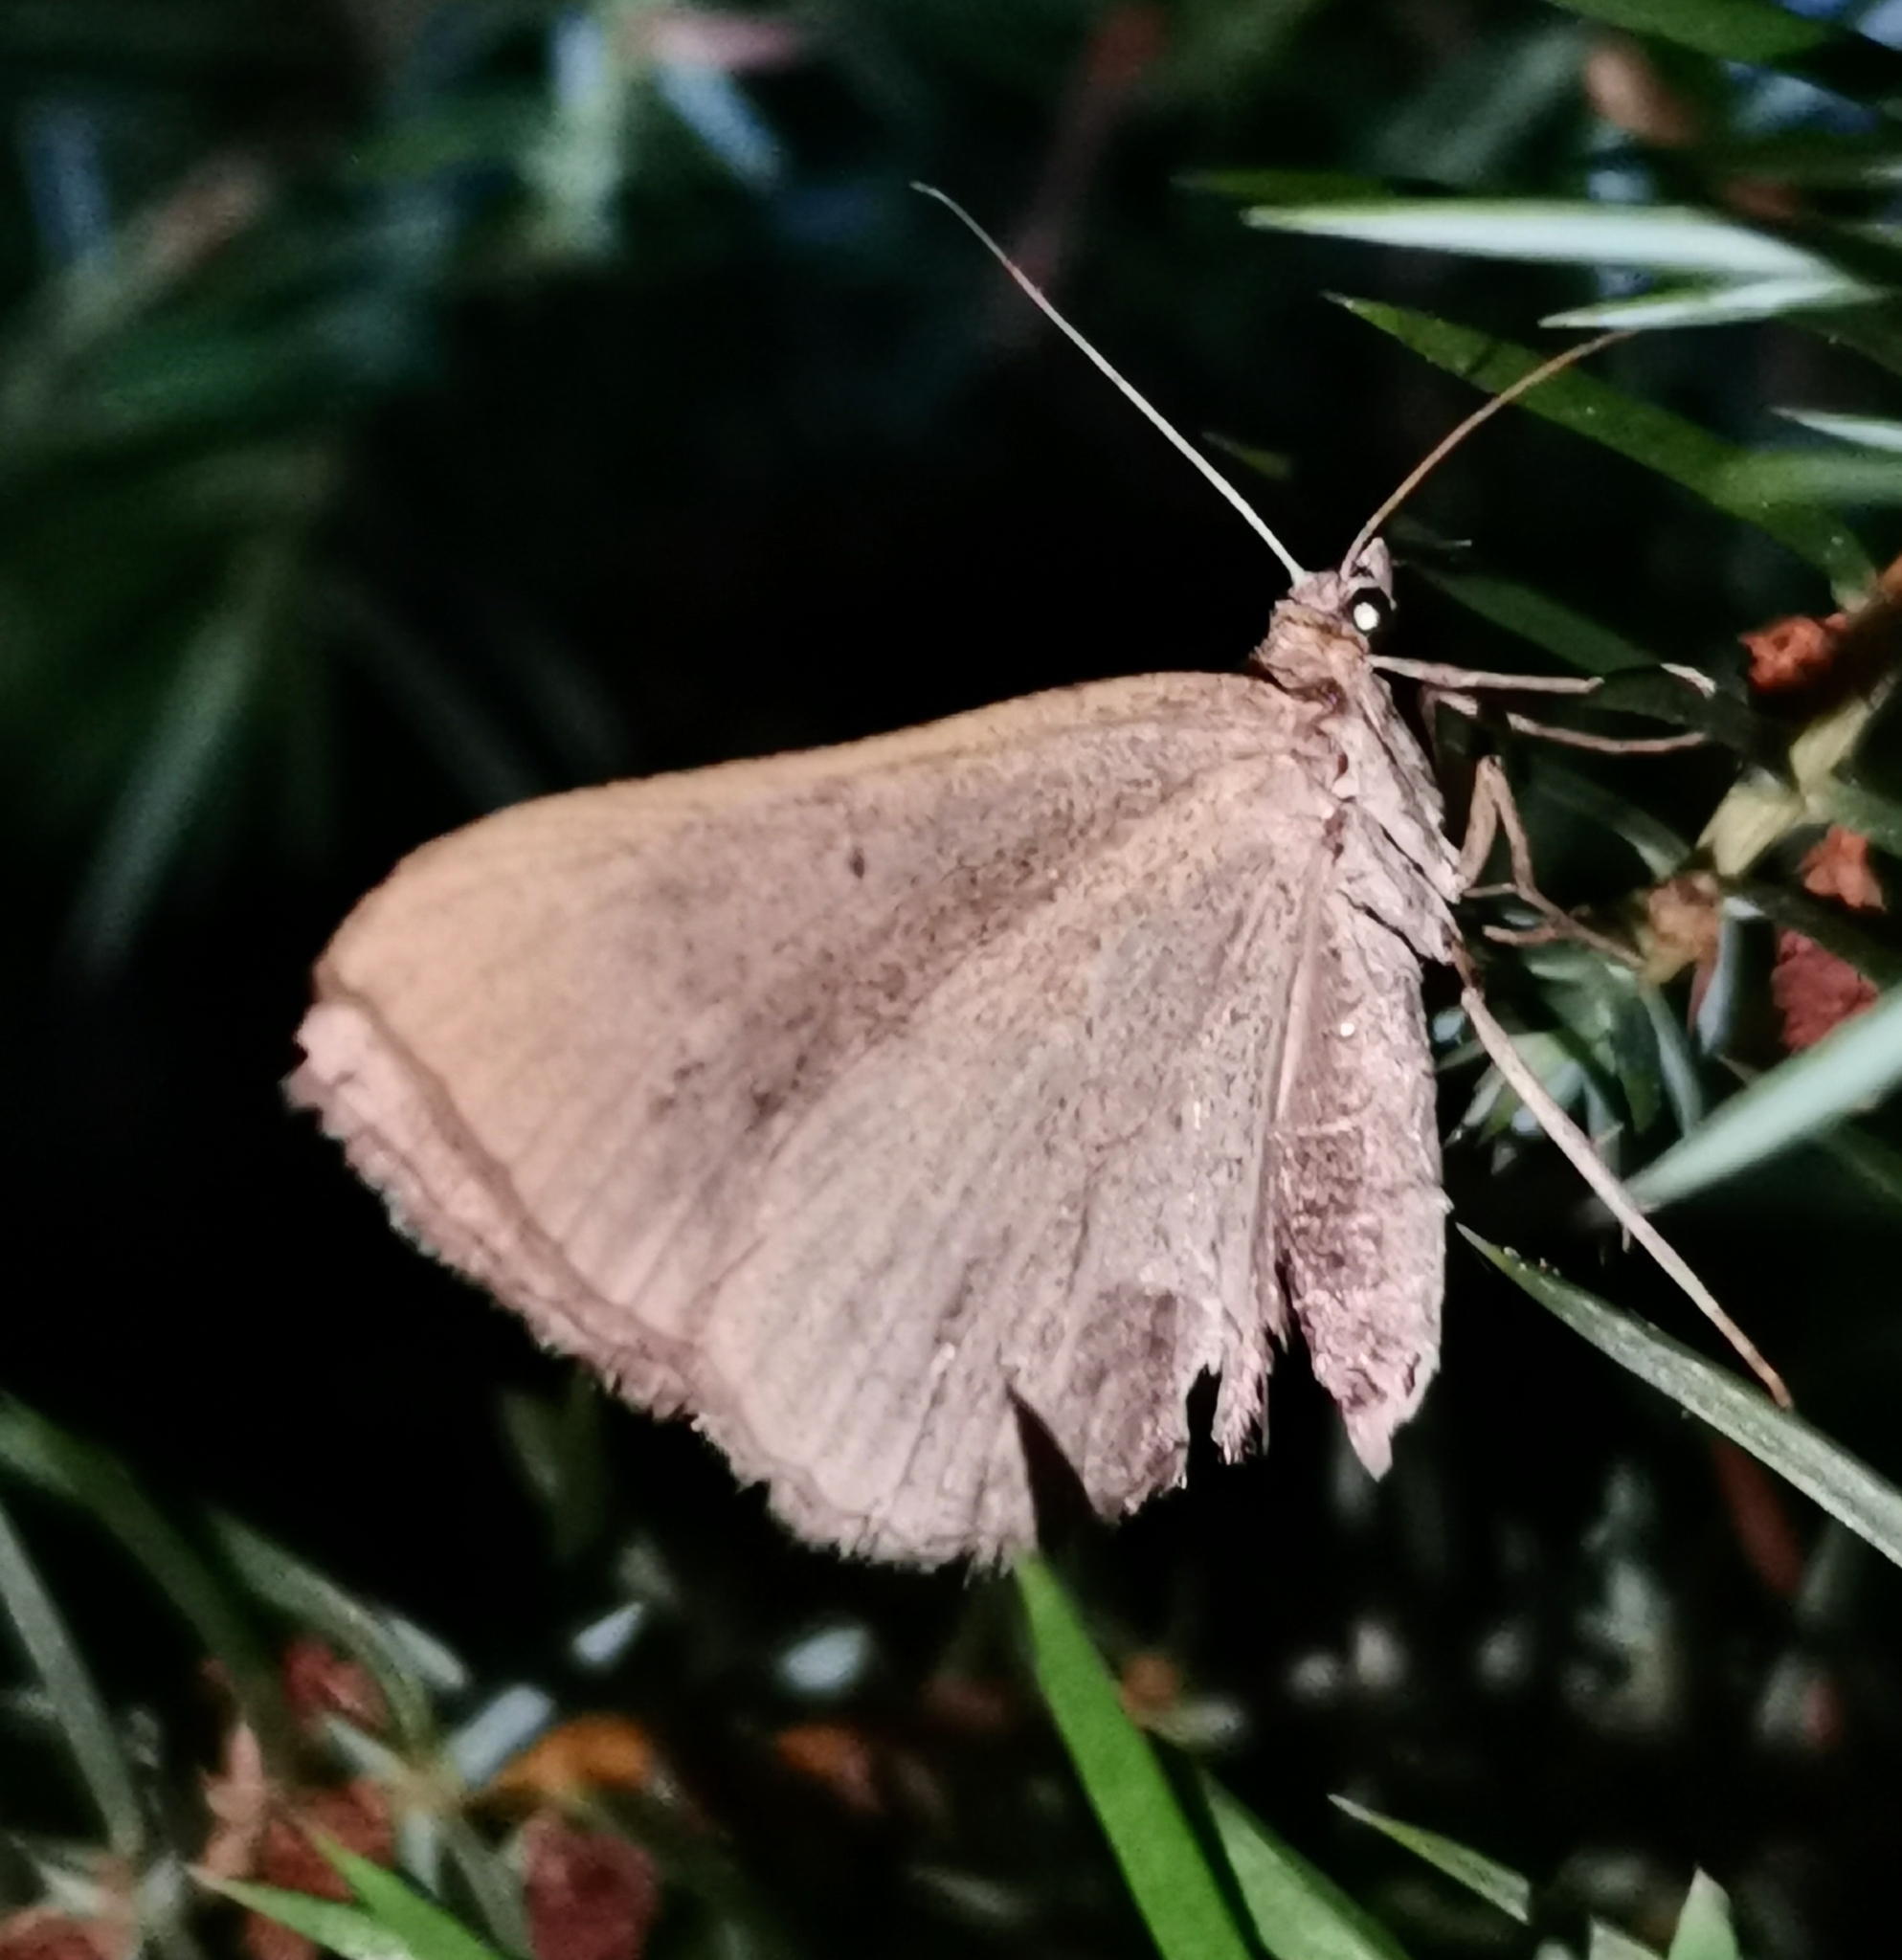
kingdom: Animalia
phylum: Arthropoda
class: Insecta
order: Lepidoptera
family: Geometridae
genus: Scotopteryx
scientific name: Scotopteryx chenopodiata
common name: Shaded broad-bar
